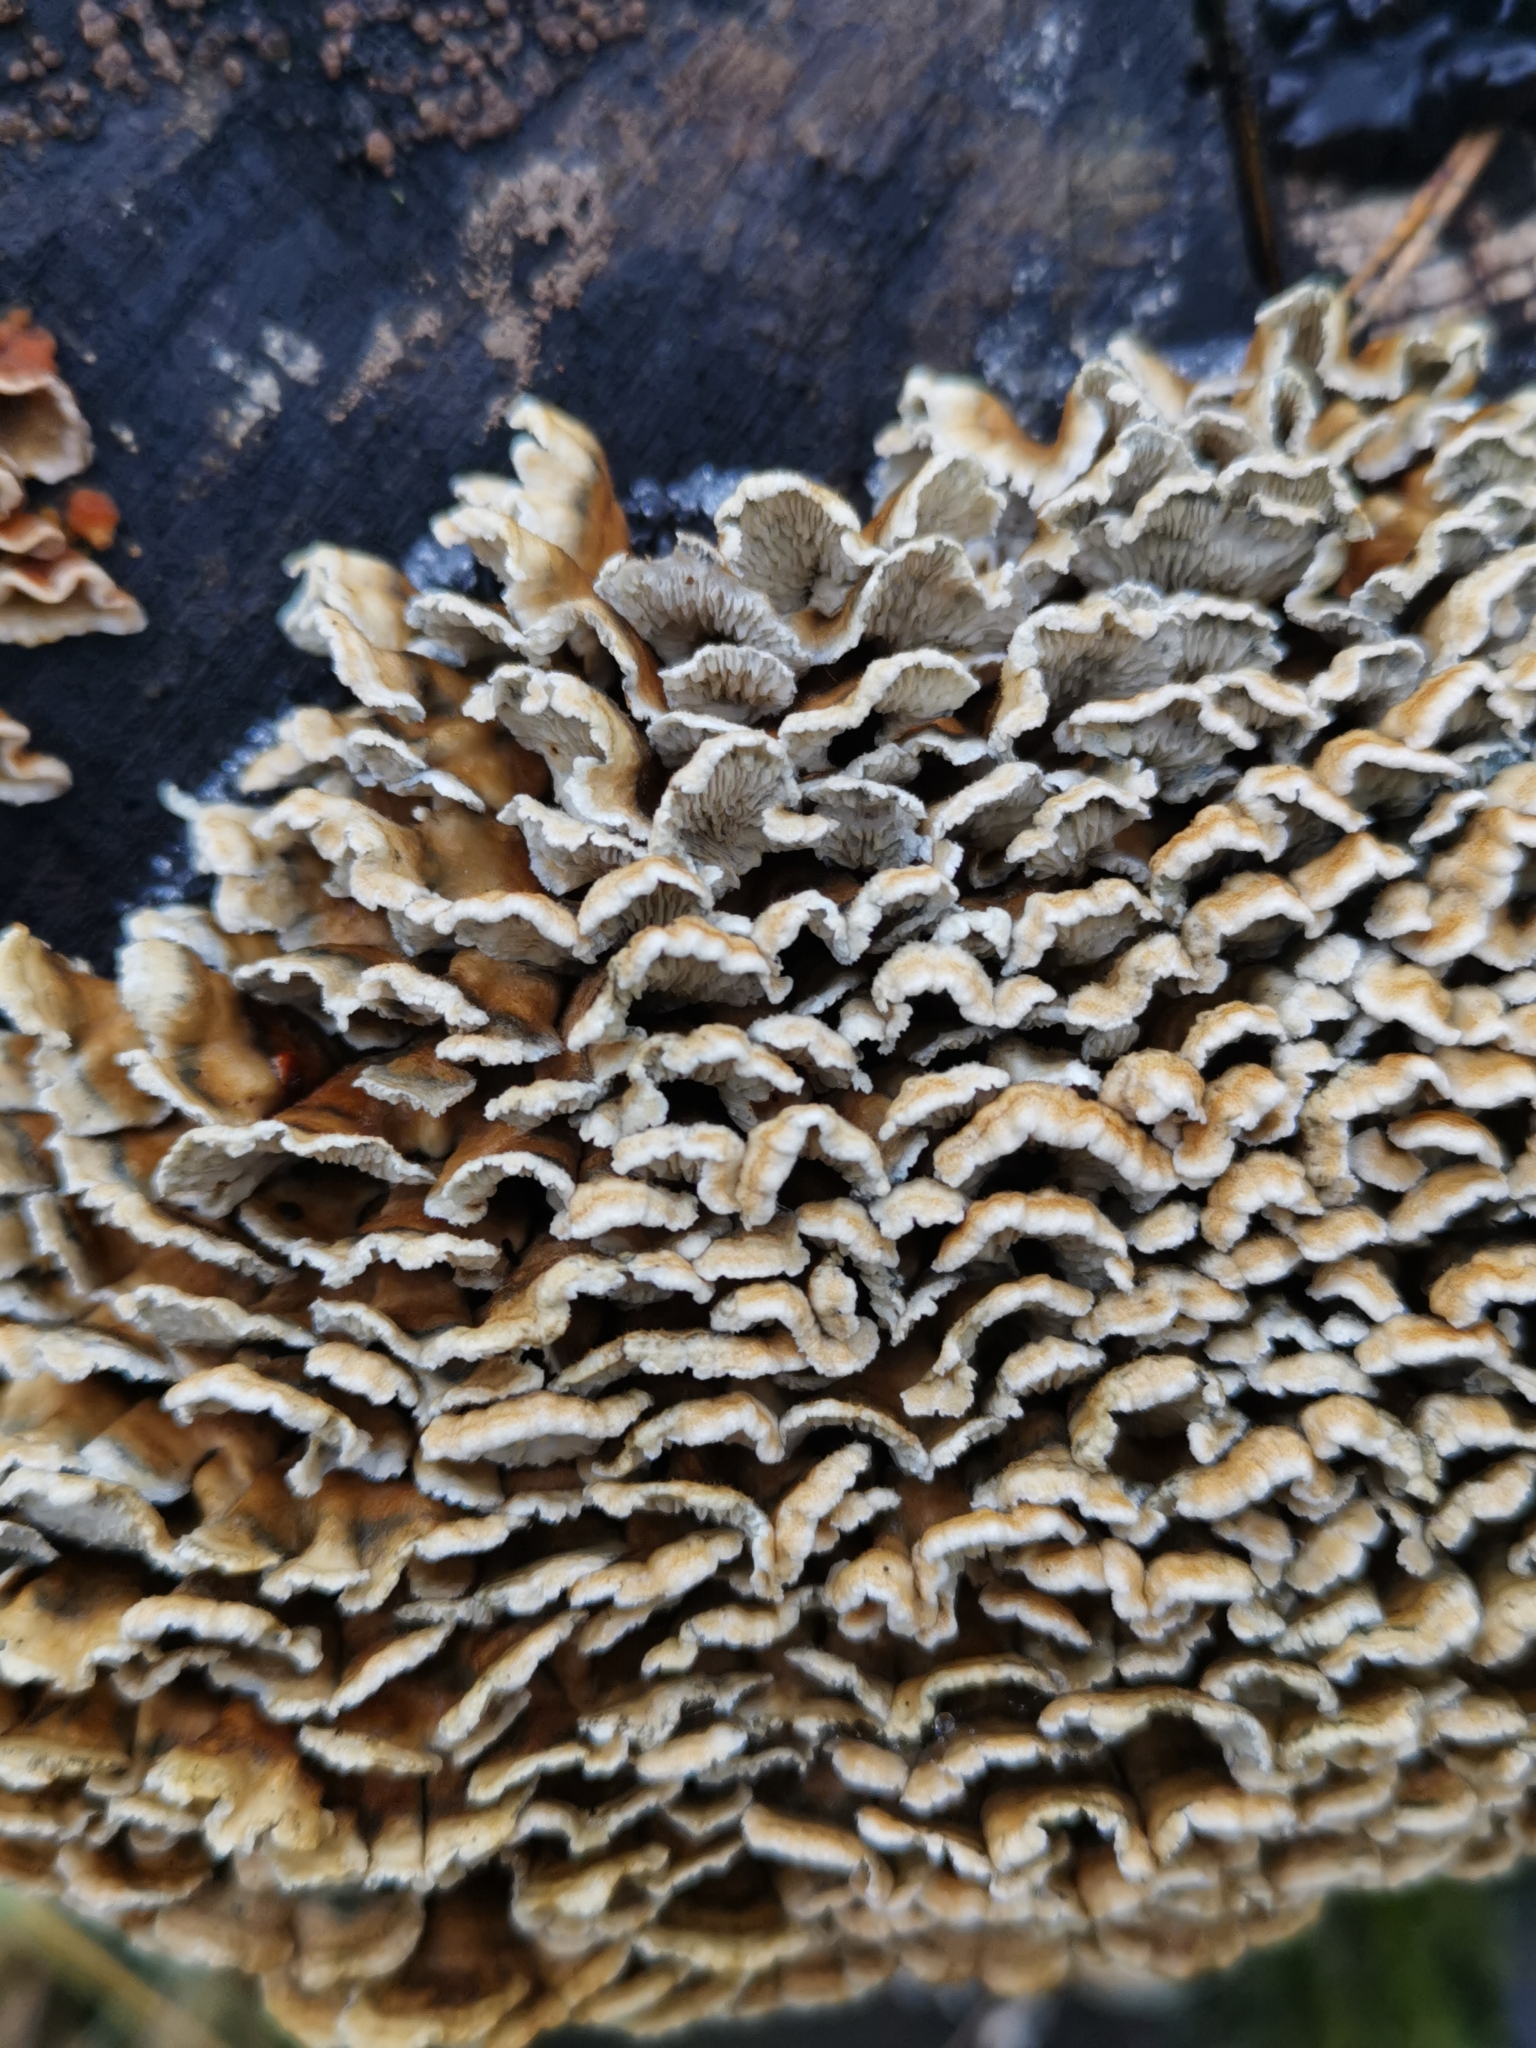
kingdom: Fungi
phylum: Basidiomycota
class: Agaricomycetes
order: Amylocorticiales
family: Amylocorticiaceae
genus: Plicaturopsis
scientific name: Plicaturopsis crispa
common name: Crimped gill
